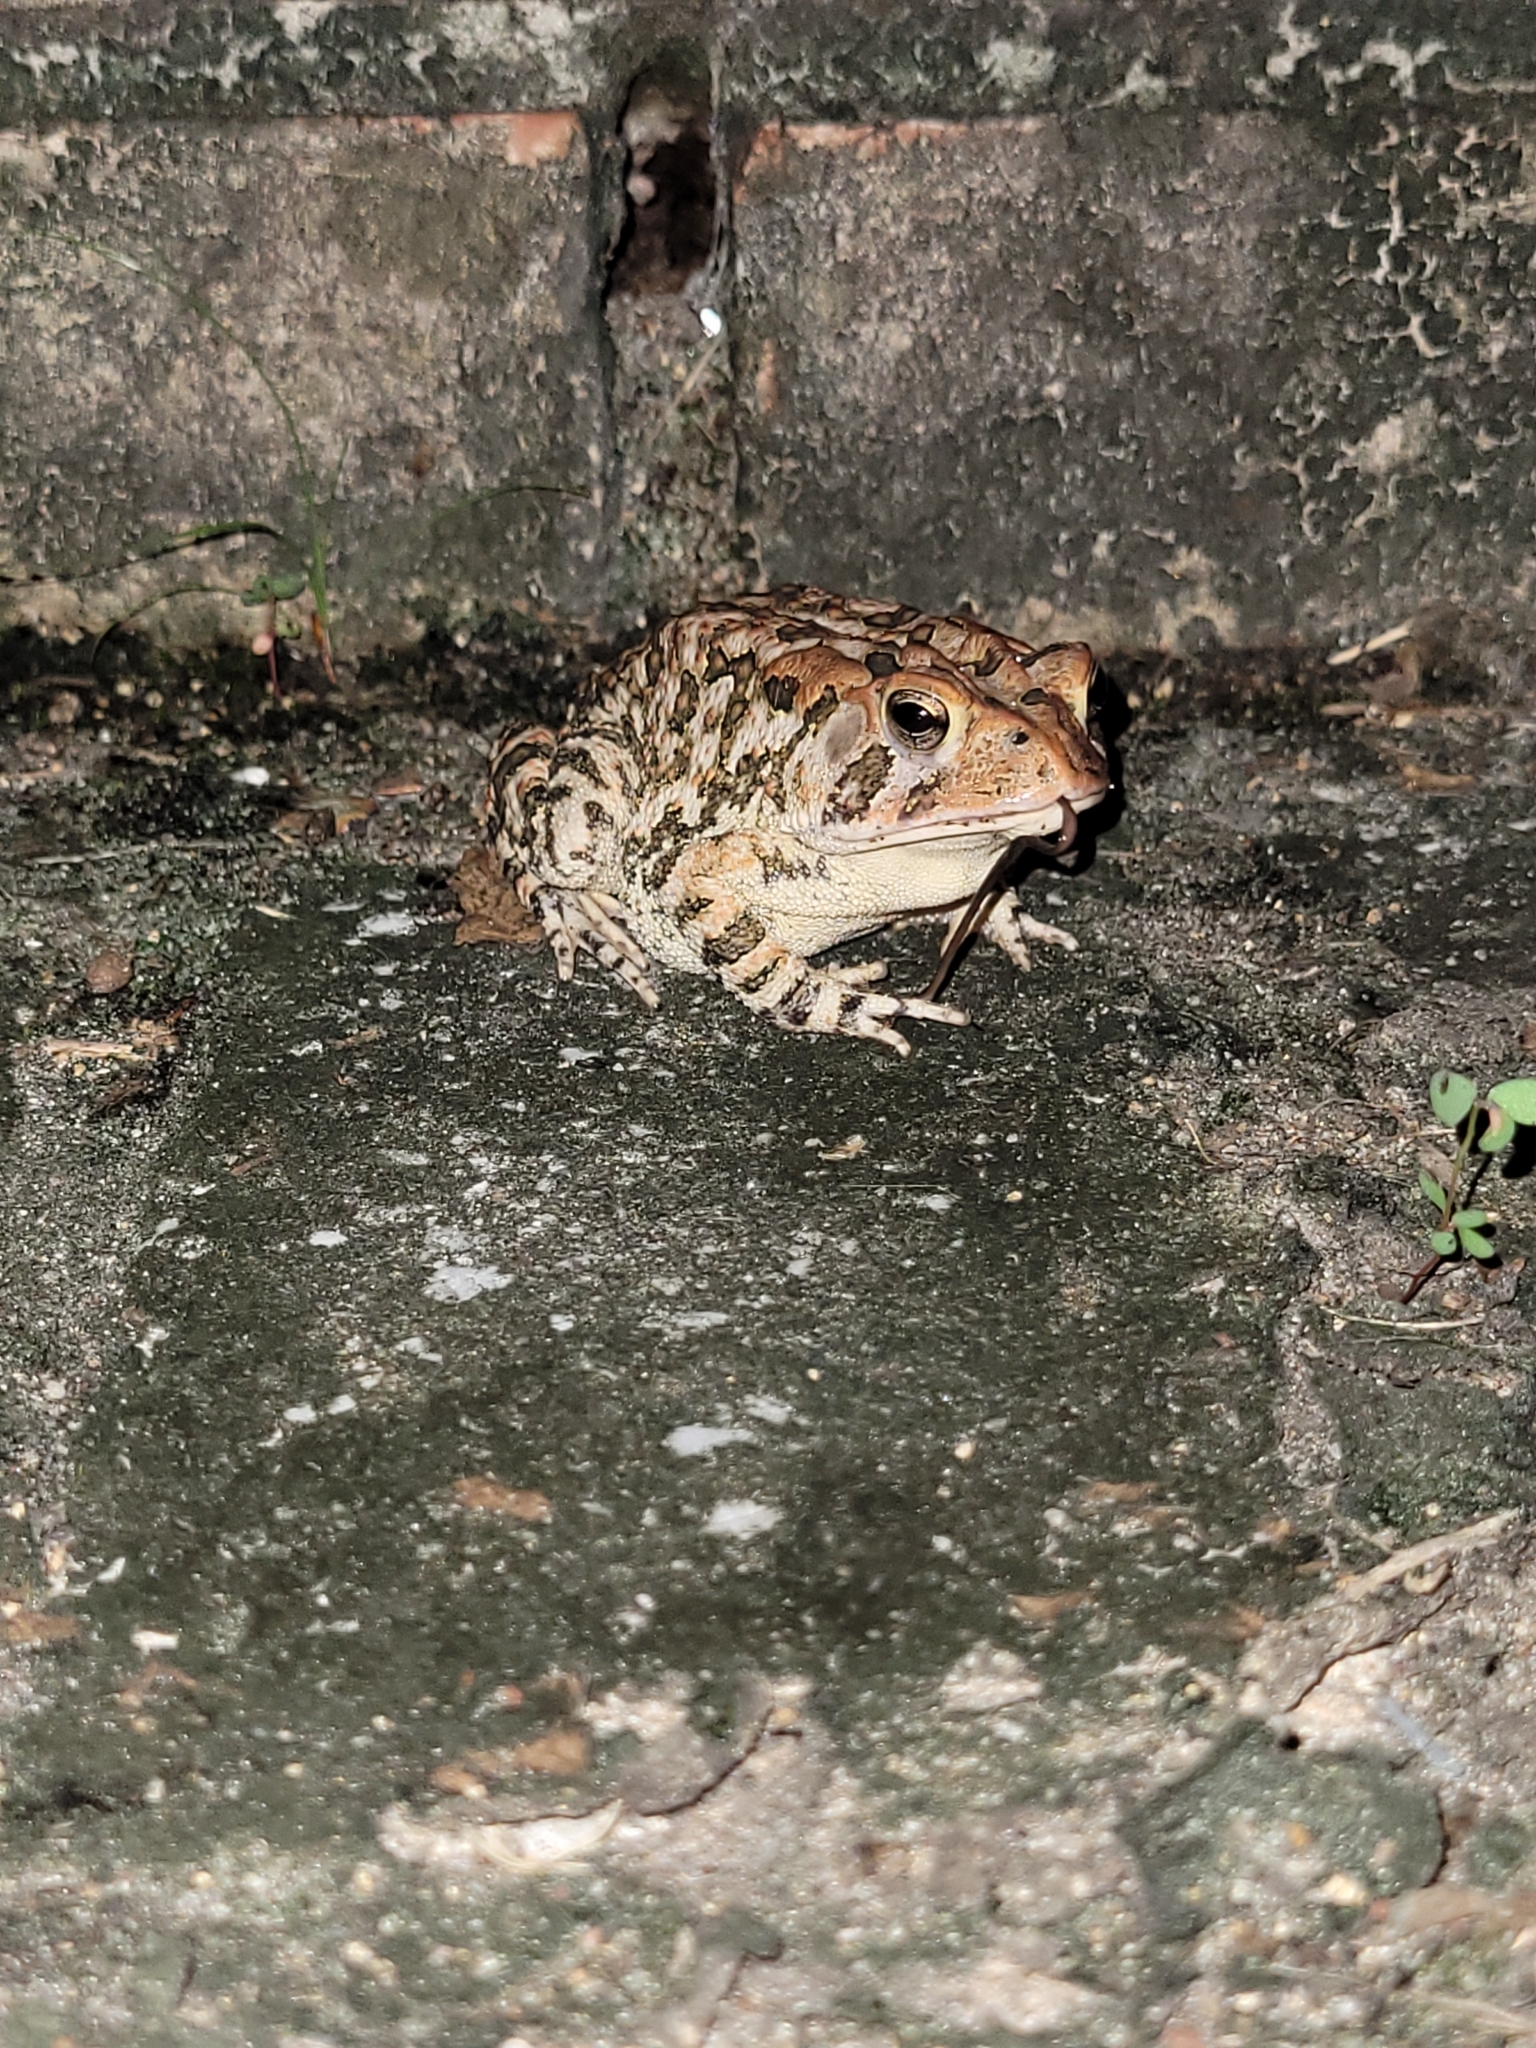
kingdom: Animalia
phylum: Chordata
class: Amphibia
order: Anura
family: Bufonidae
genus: Anaxyrus
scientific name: Anaxyrus terrestris
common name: Southern toad
